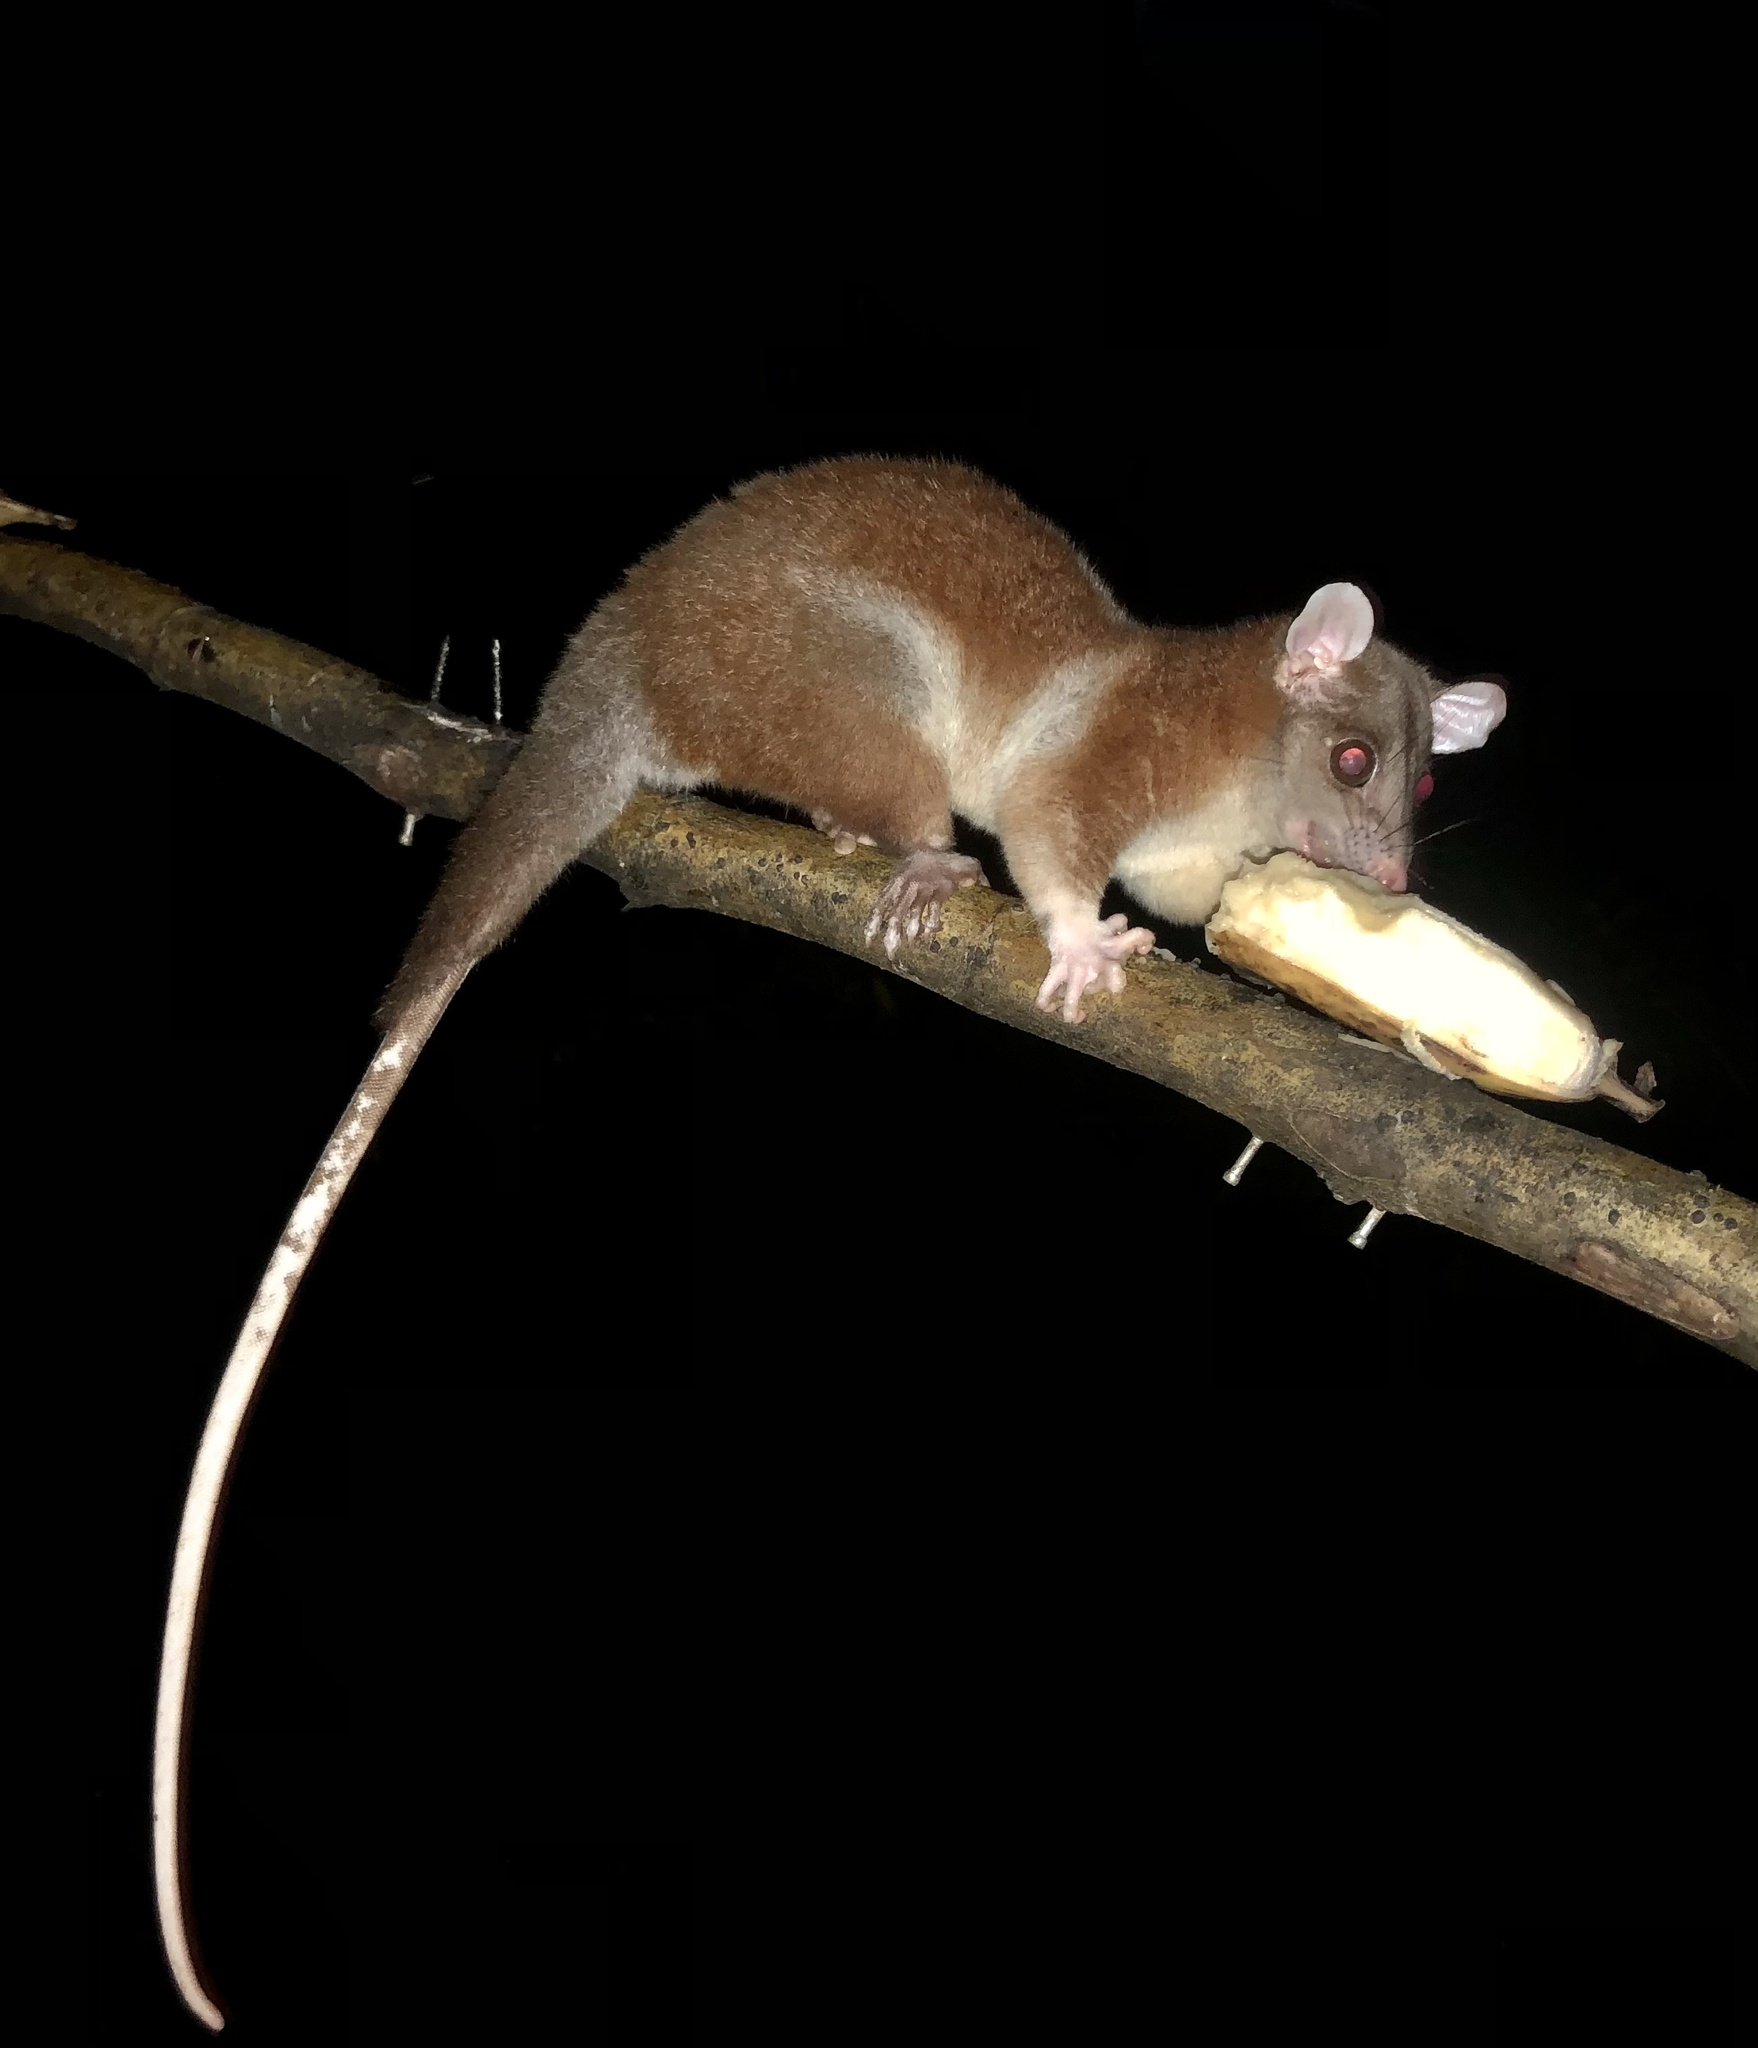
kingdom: Animalia
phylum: Chordata
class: Mammalia
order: Didelphimorphia
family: Didelphidae
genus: Caluromys
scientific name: Caluromys derbianus
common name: Derby's woolly opossum
